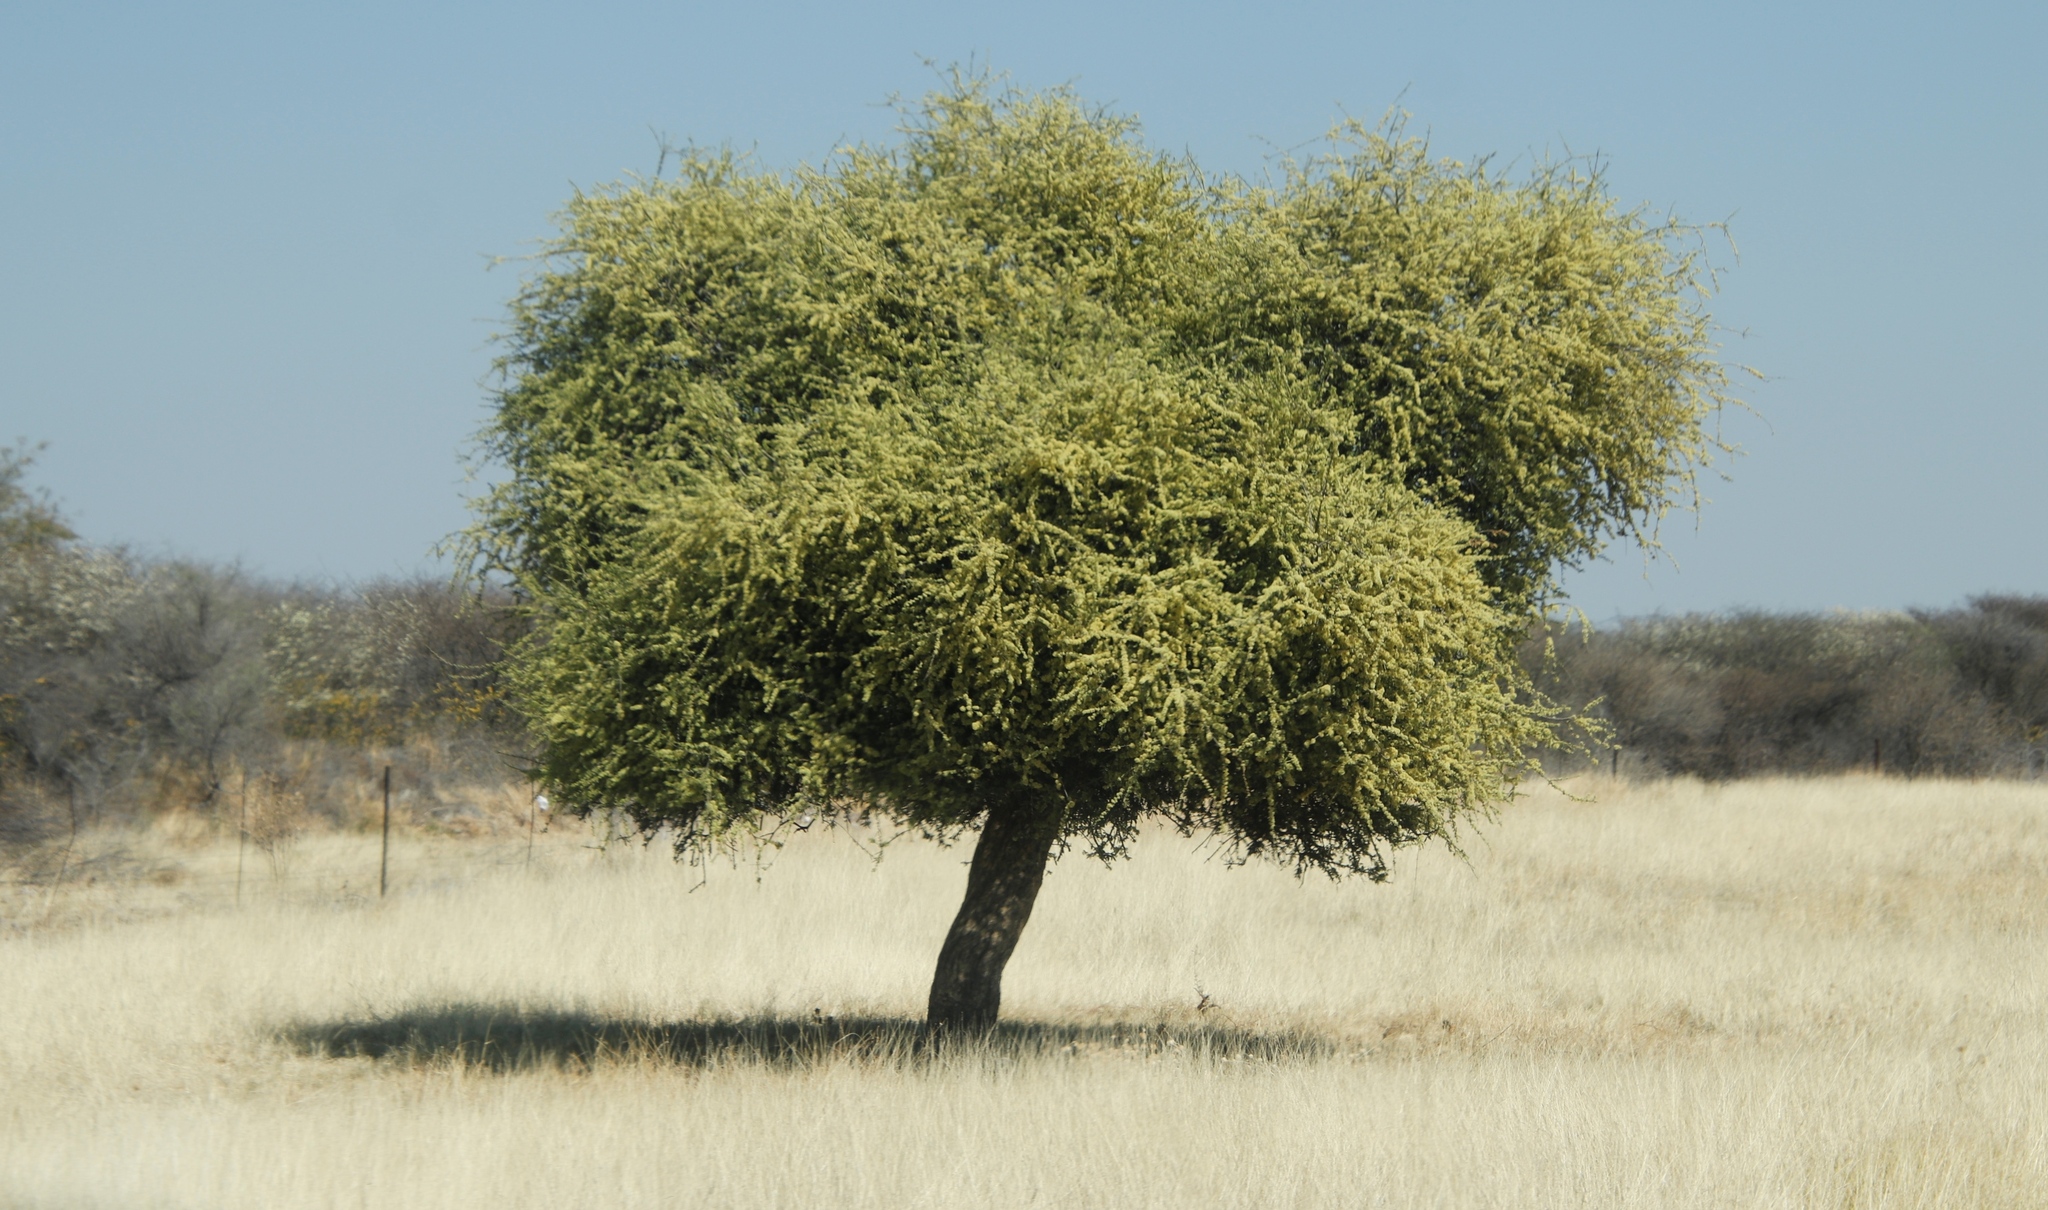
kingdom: Plantae
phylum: Tracheophyta
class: Magnoliopsida
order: Brassicales
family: Capparaceae
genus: Boscia
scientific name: Boscia albitrunca
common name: Caper bush
